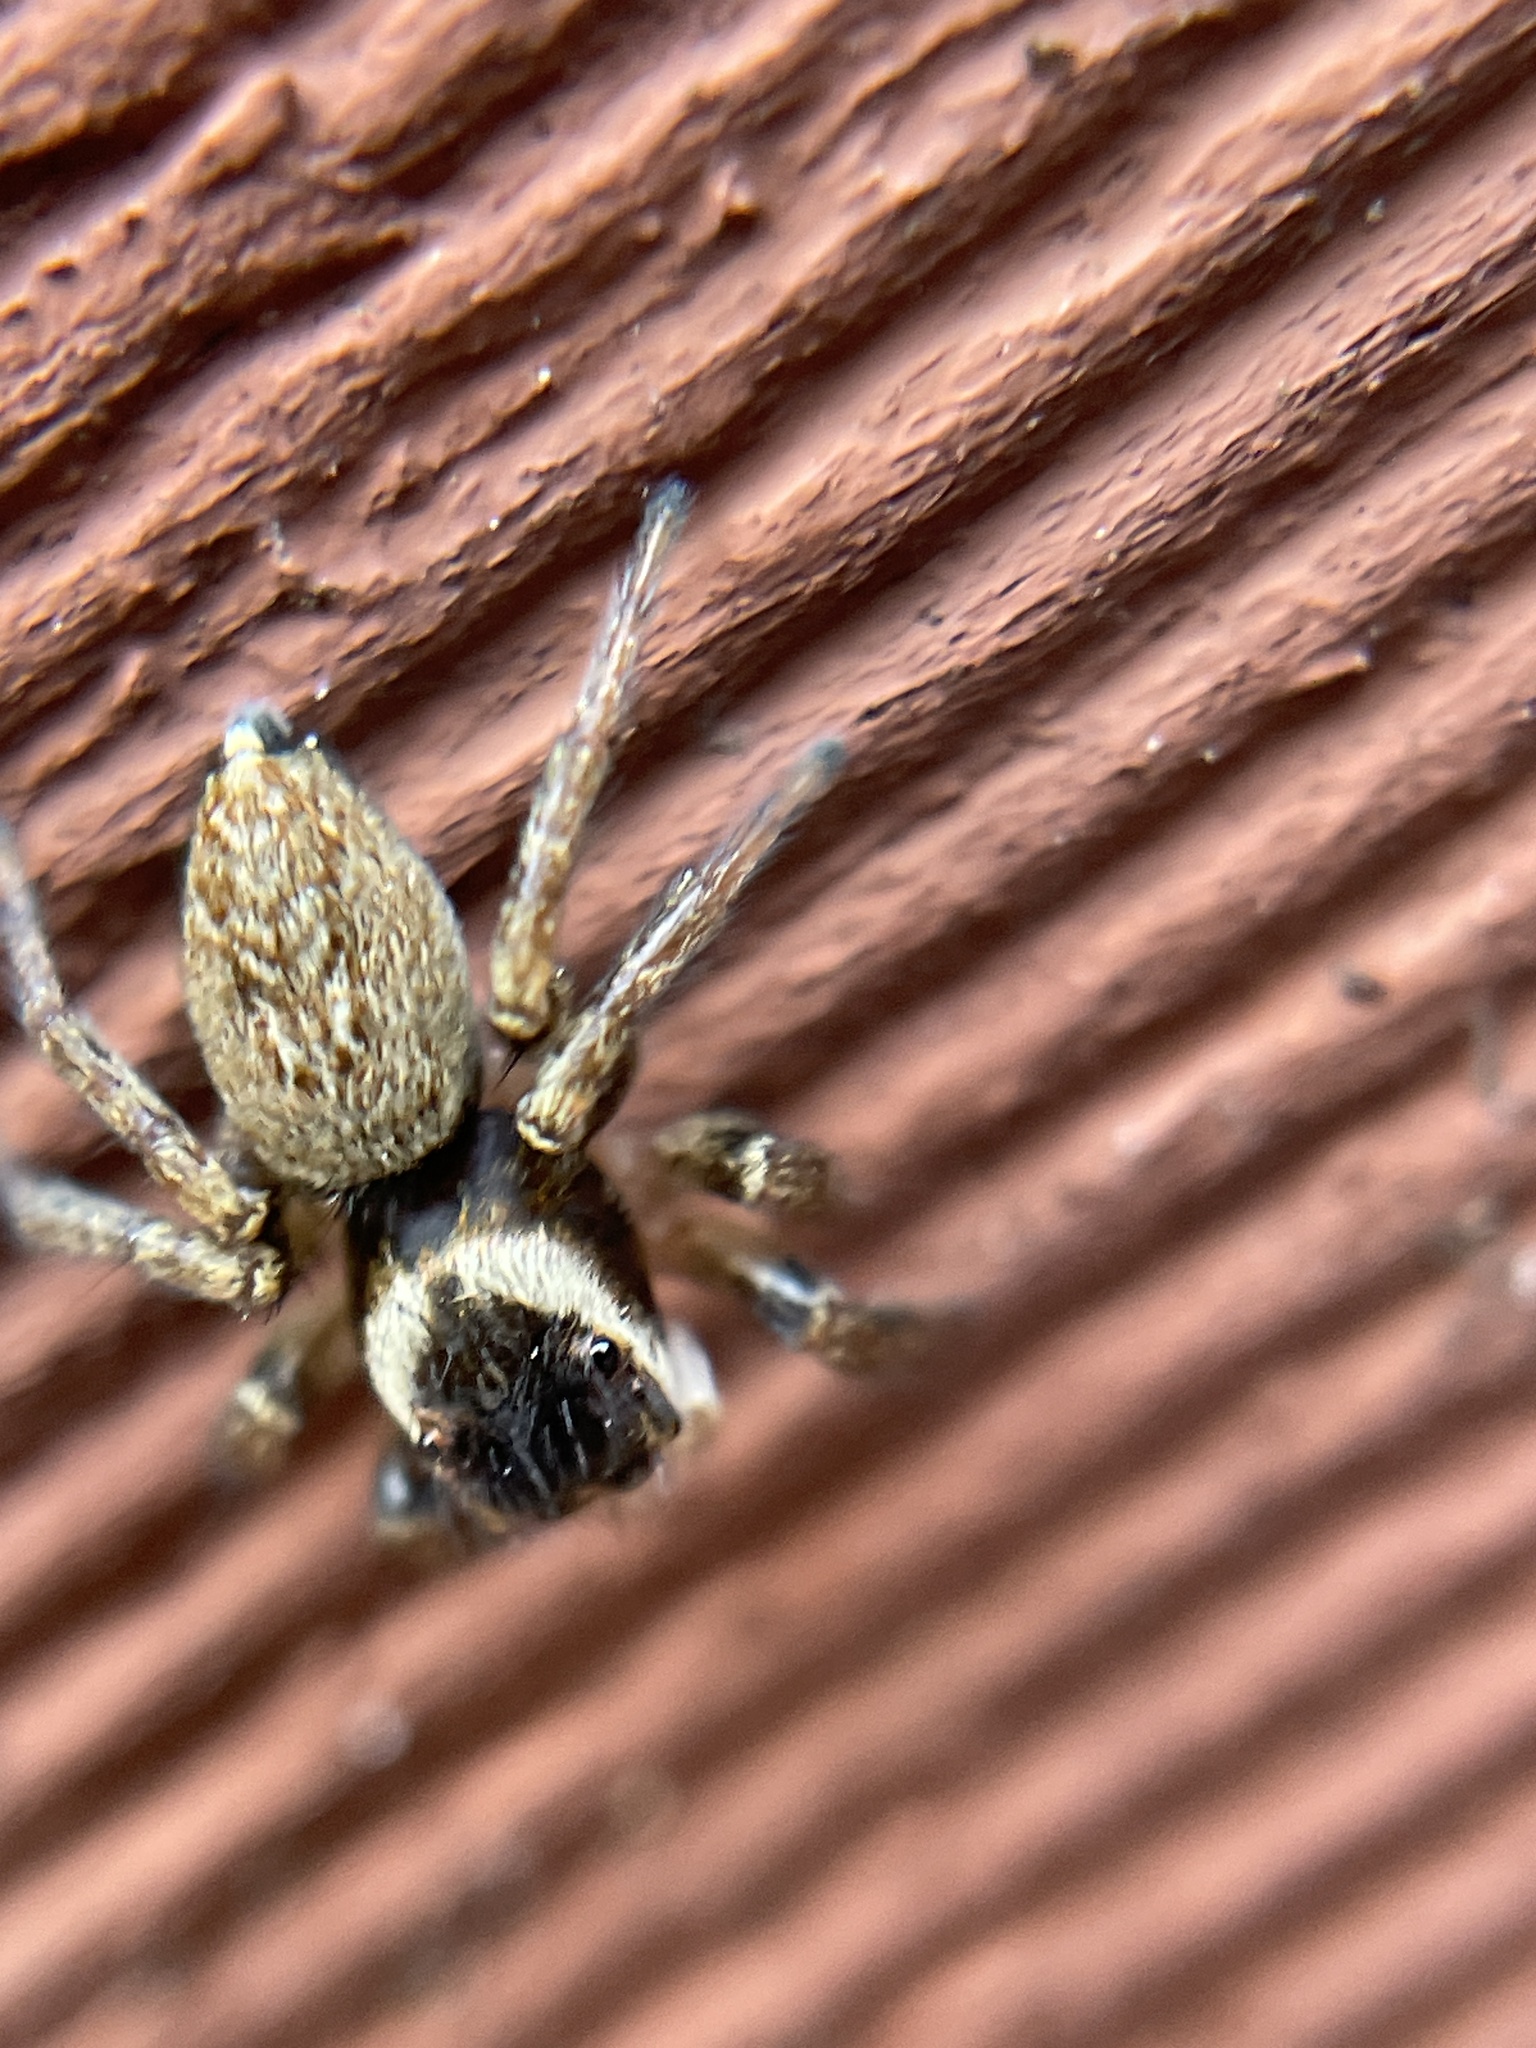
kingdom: Animalia
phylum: Arthropoda
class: Arachnida
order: Araneae
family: Salticidae
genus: Maratus
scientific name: Maratus griseus
